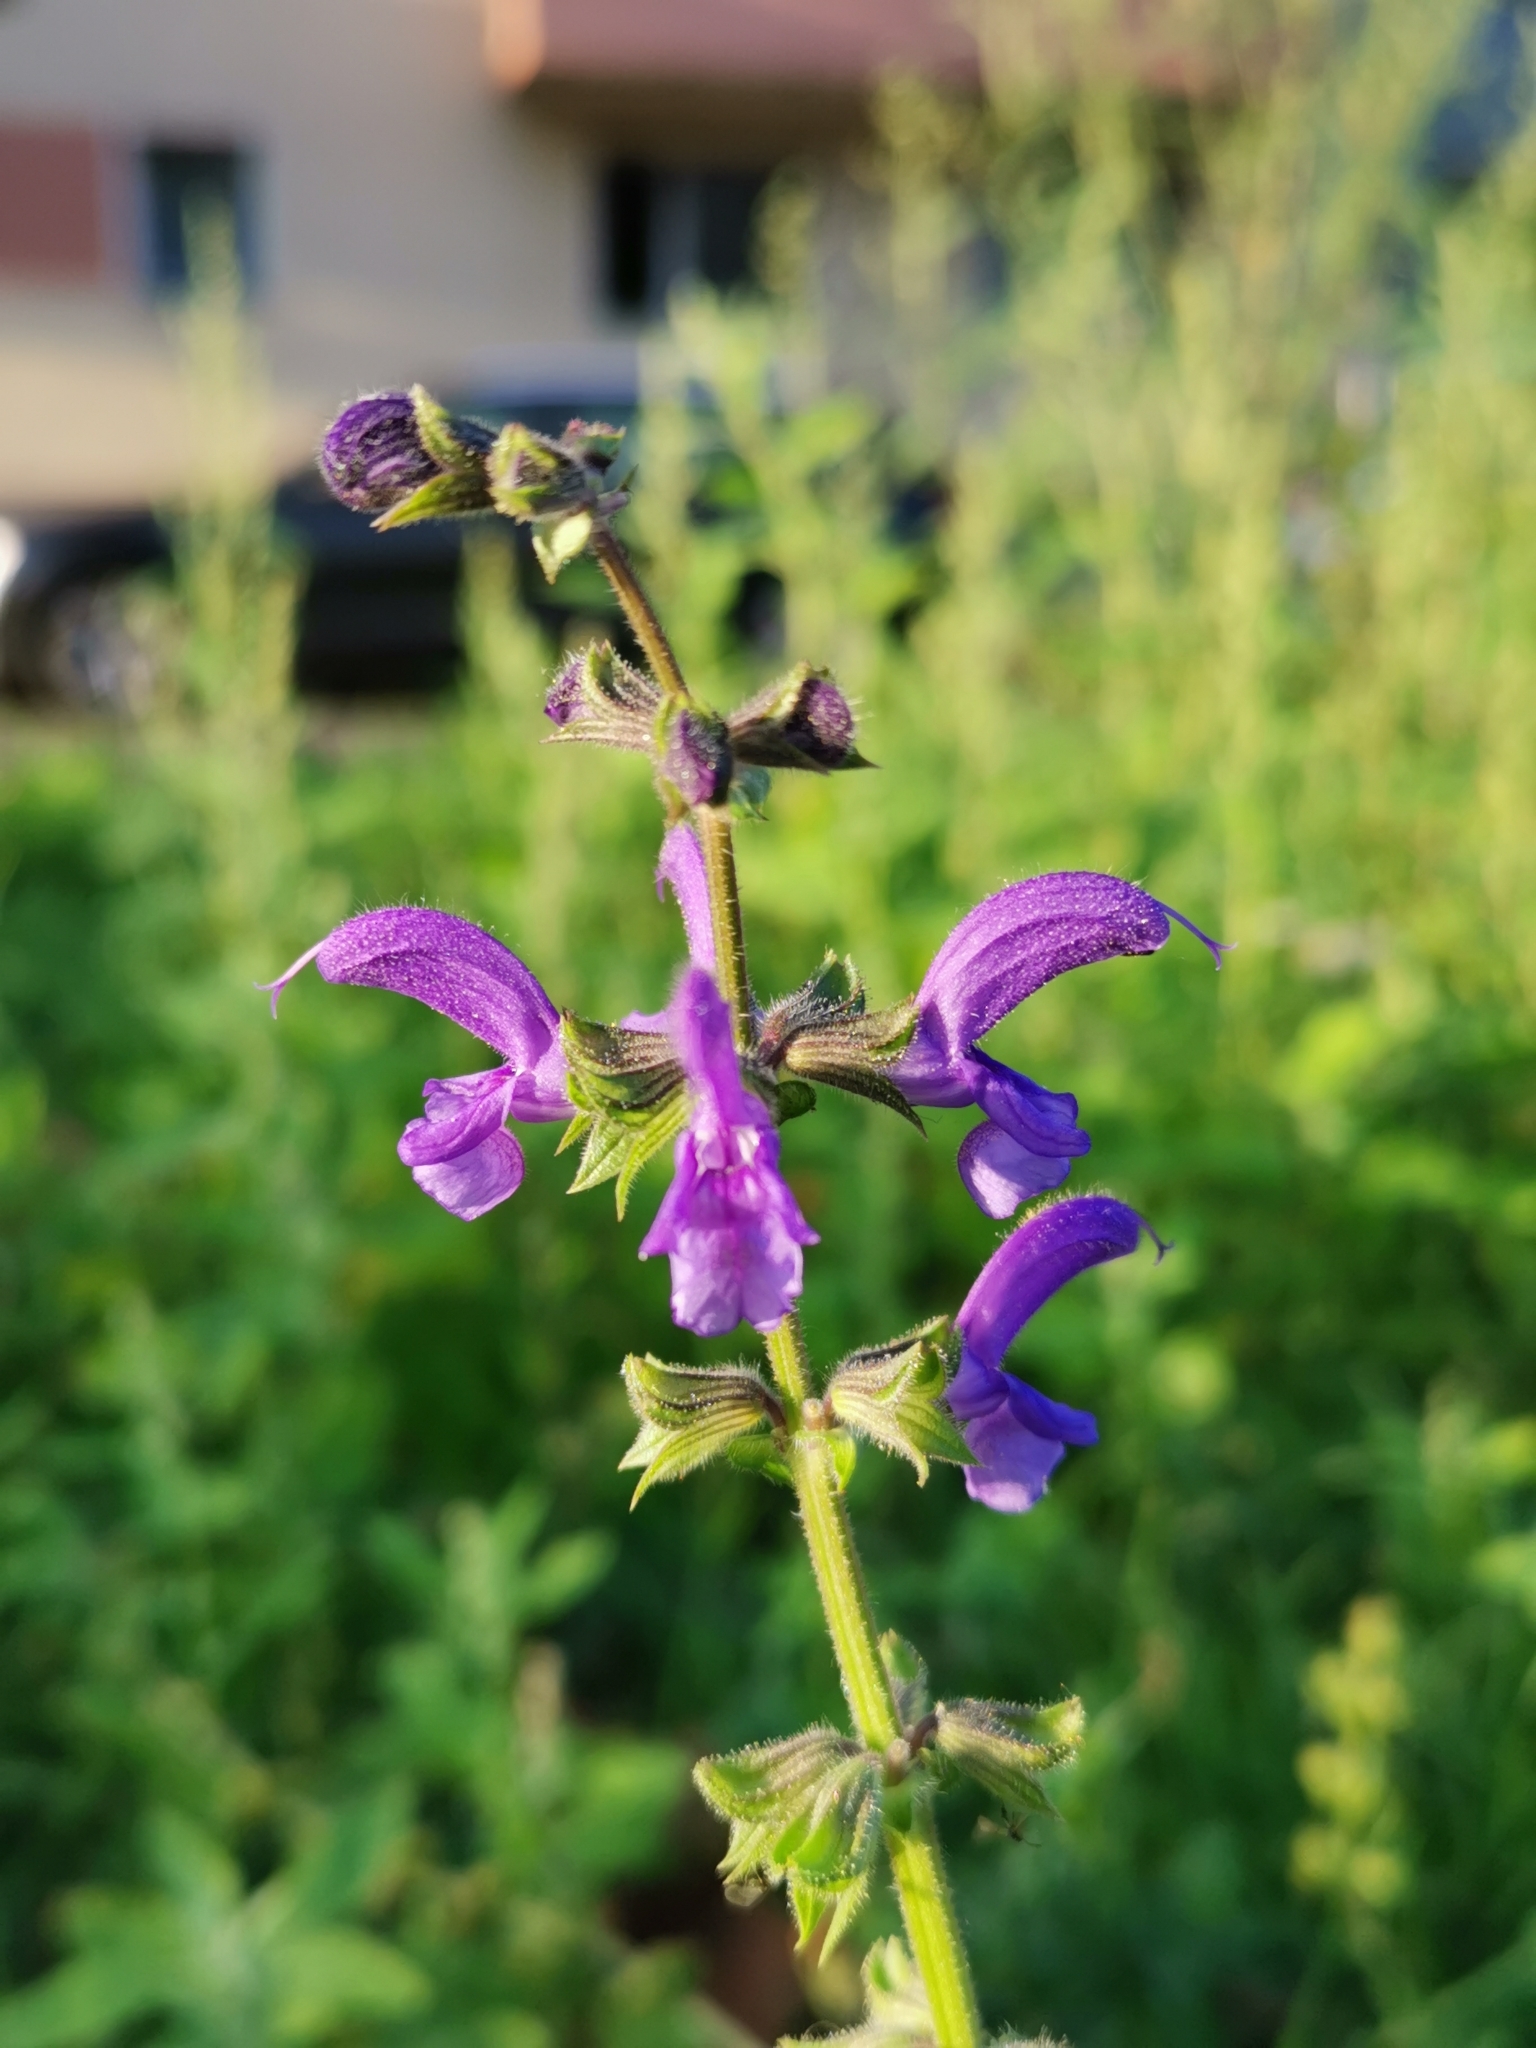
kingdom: Plantae
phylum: Tracheophyta
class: Magnoliopsida
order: Lamiales
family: Lamiaceae
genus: Salvia
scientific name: Salvia pratensis
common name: Meadow sage
